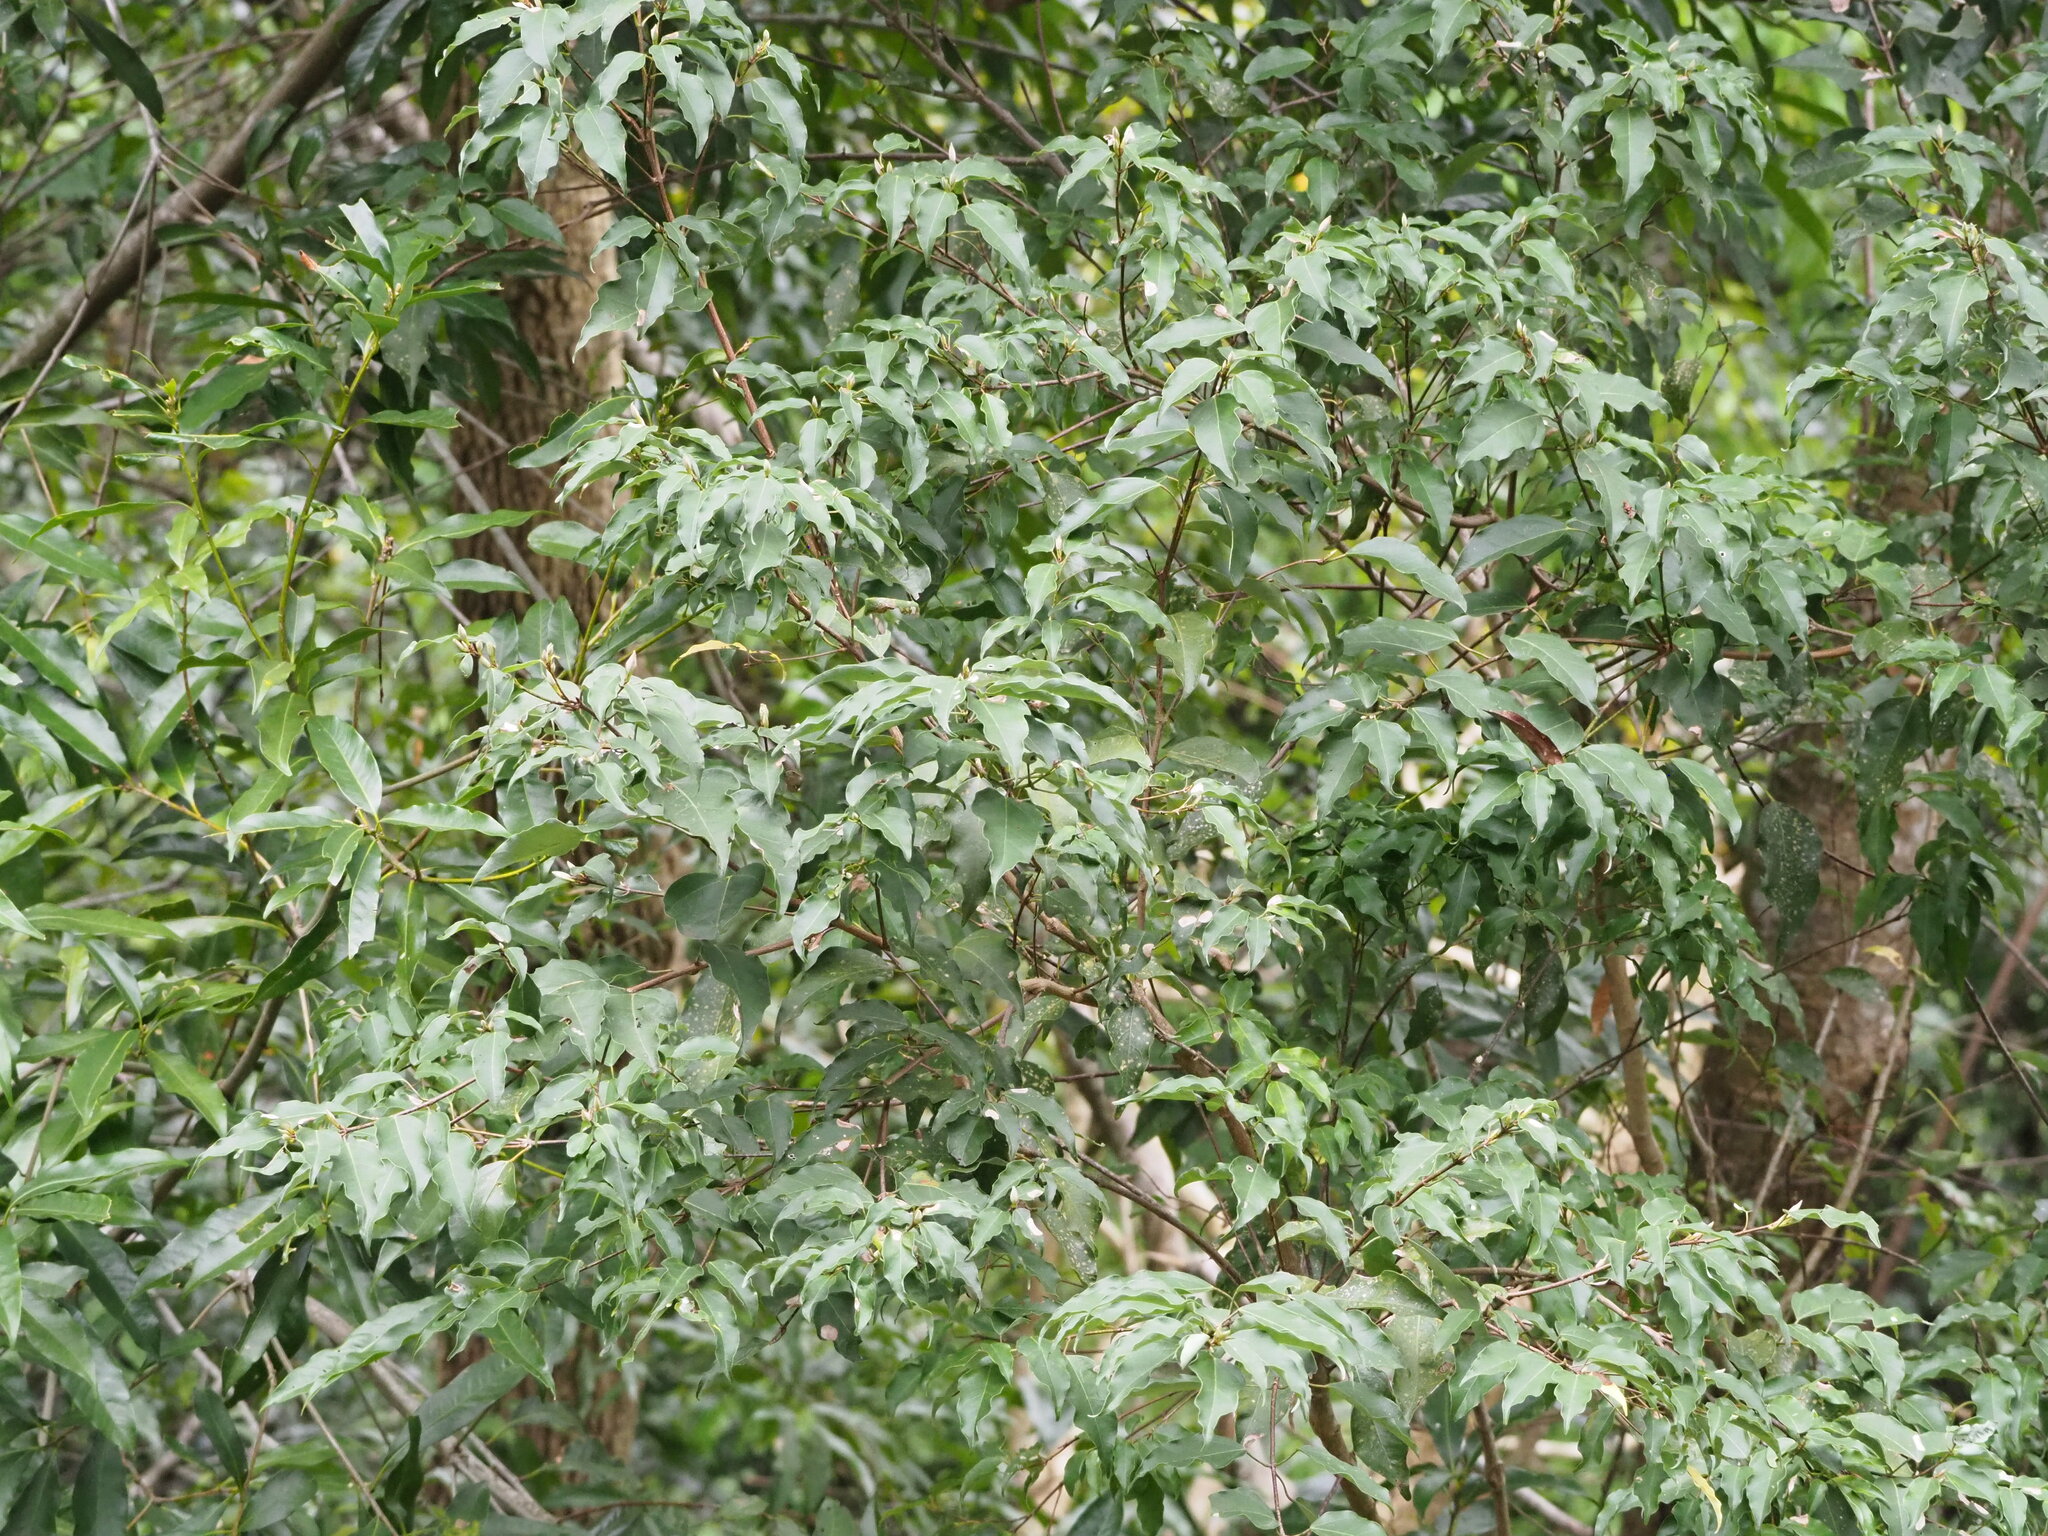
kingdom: Plantae
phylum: Tracheophyta
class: Magnoliopsida
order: Sapindales
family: Sapindaceae
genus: Acer
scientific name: Acer oblongum
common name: Himalayan maple
